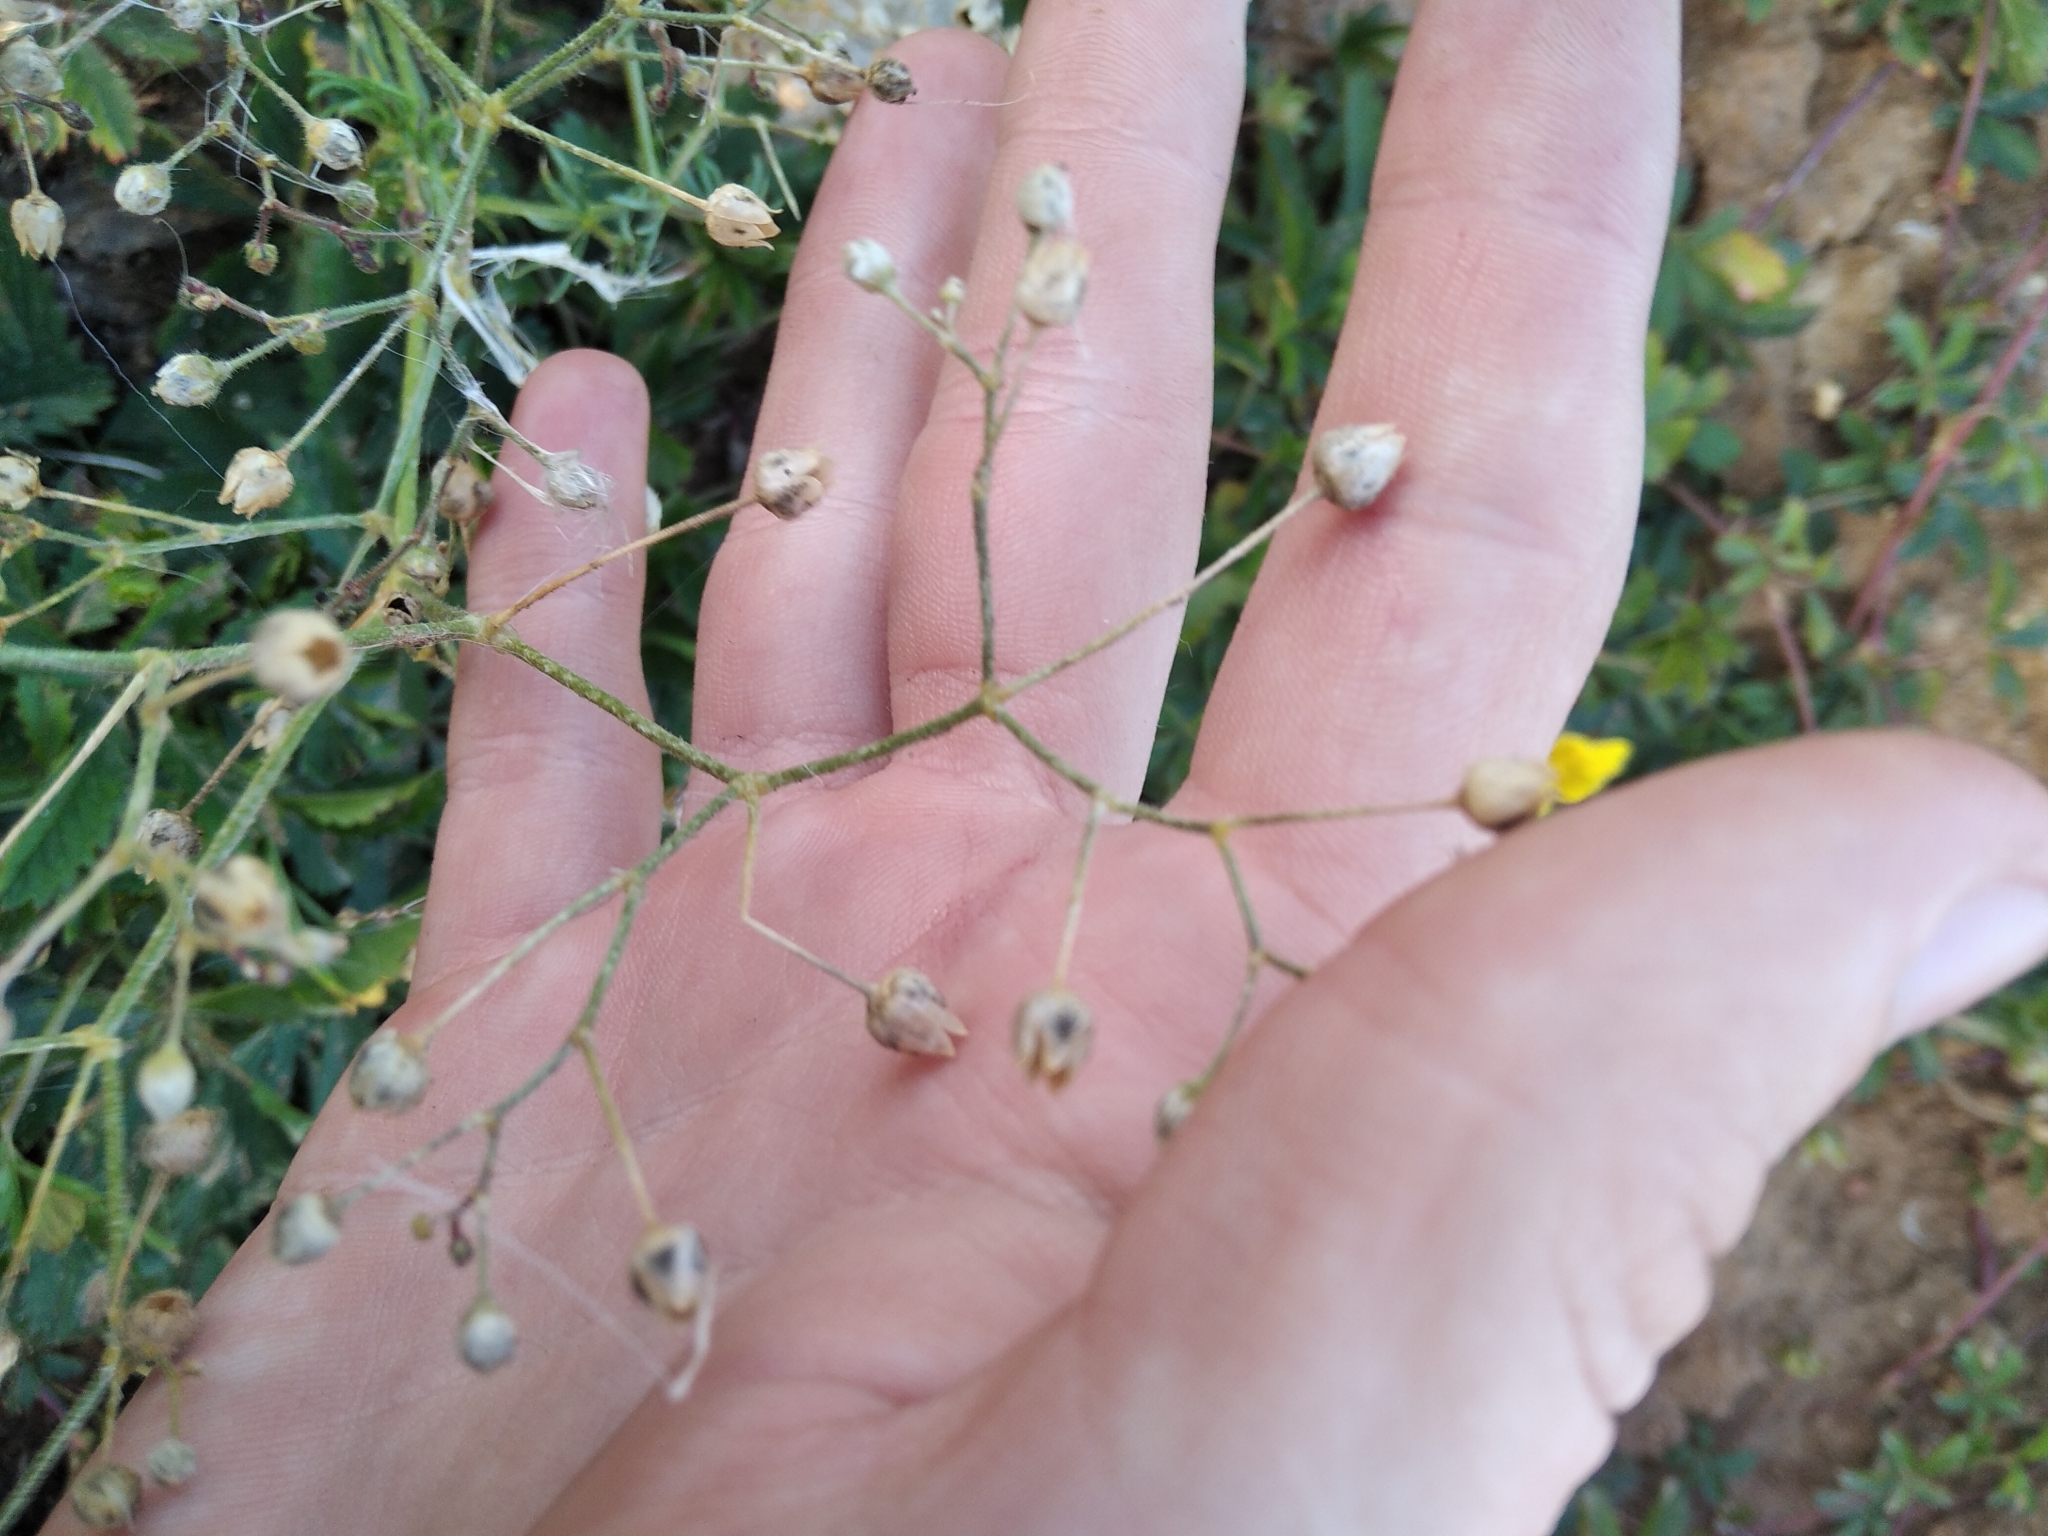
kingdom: Plantae
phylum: Tracheophyta
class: Magnoliopsida
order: Caryophyllales
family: Caryophyllaceae
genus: Spergula
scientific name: Spergula arvensis
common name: Corn spurrey
